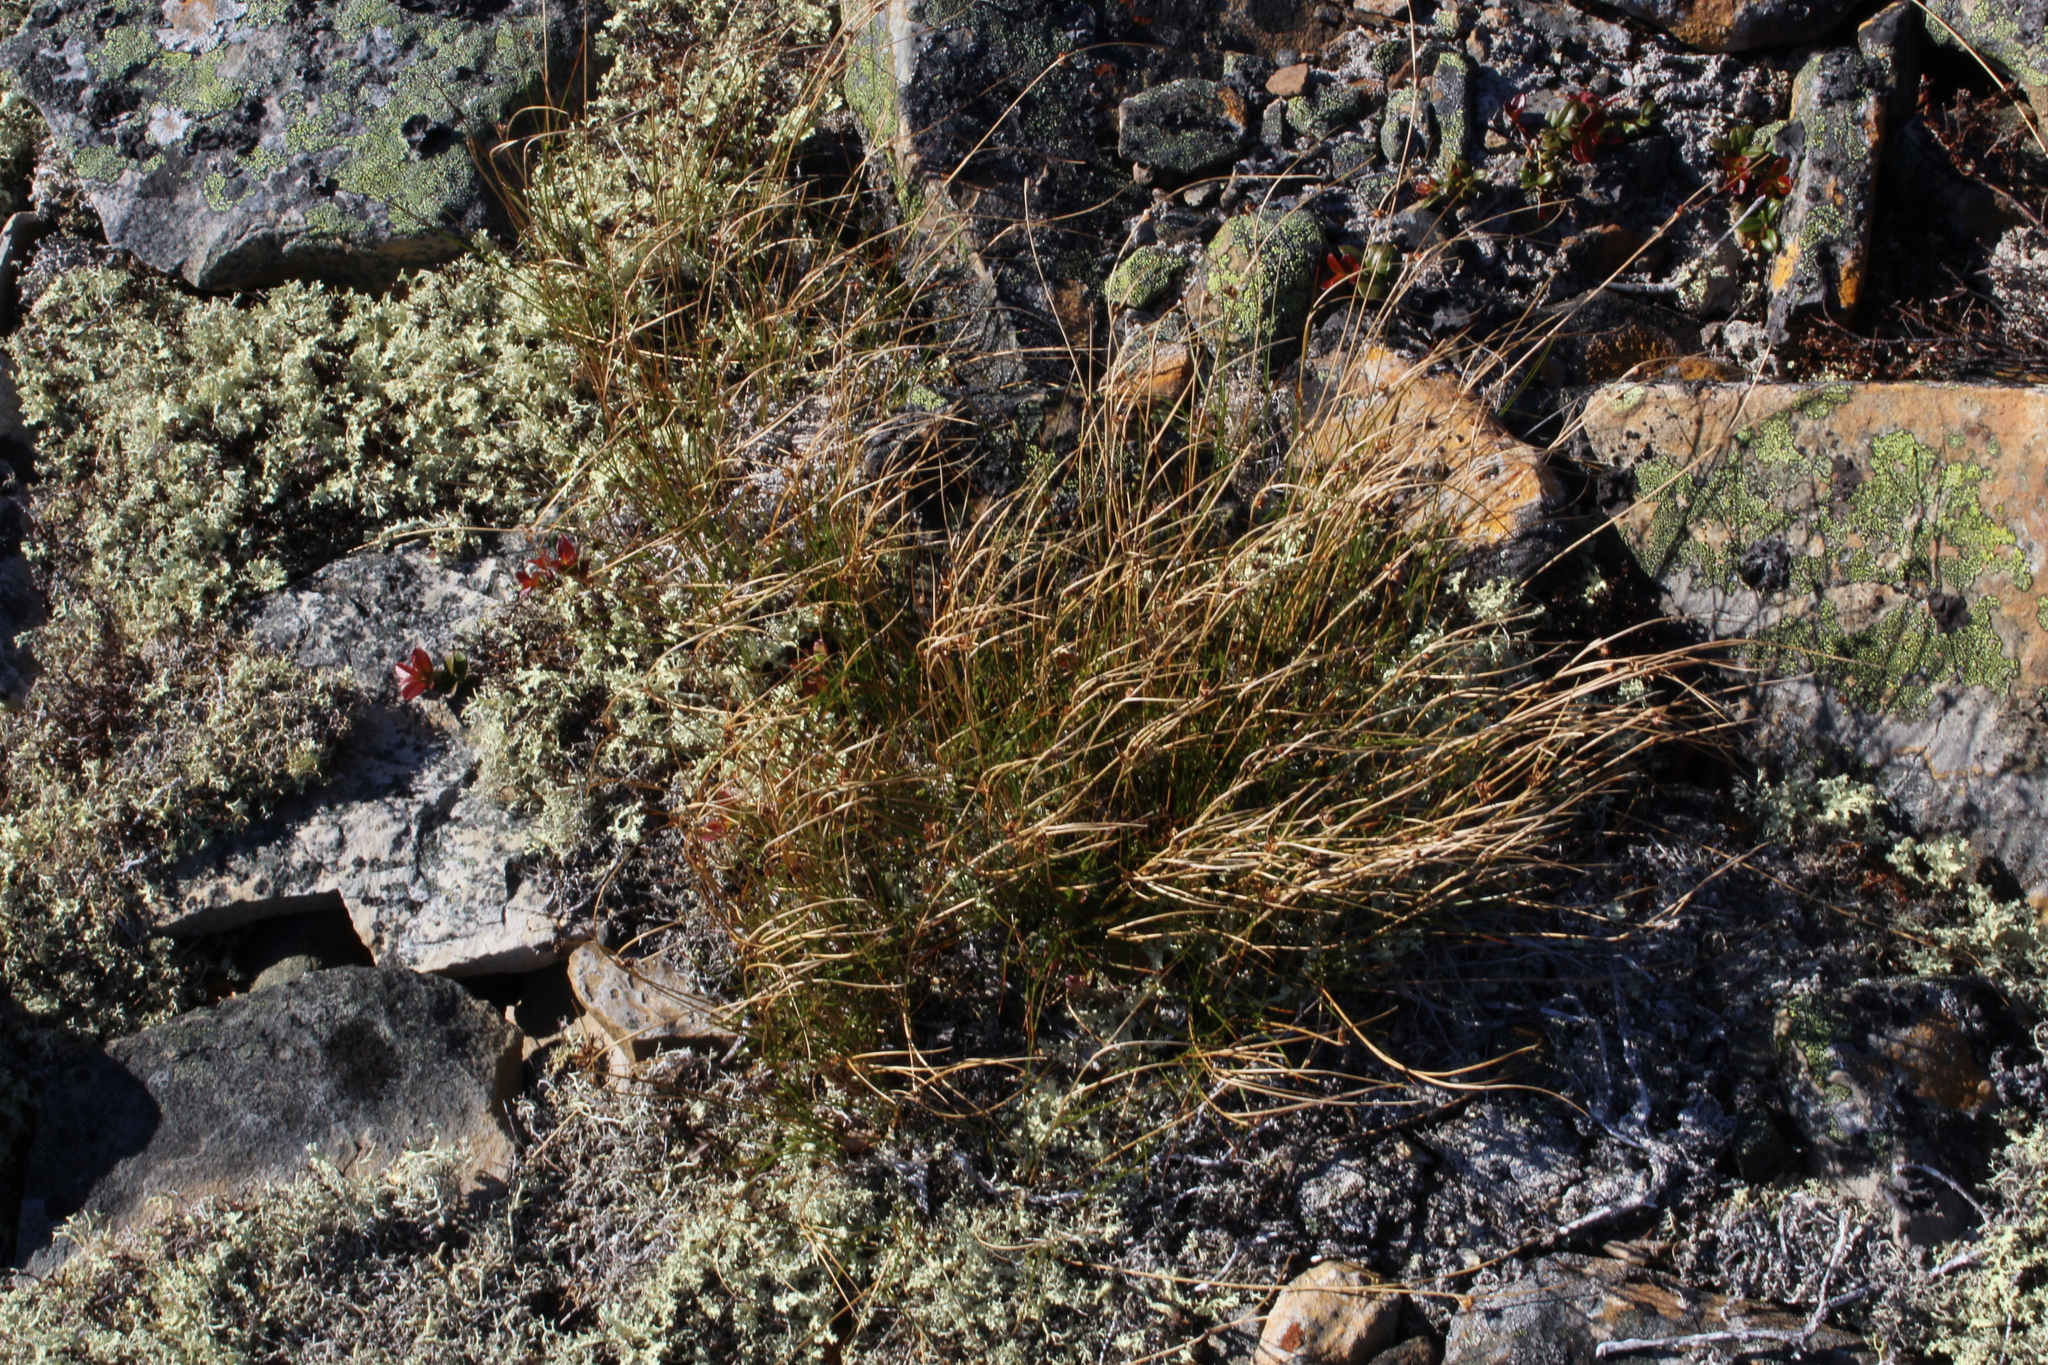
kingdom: Plantae
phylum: Tracheophyta
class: Liliopsida
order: Poales
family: Juncaceae
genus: Oreojuncus
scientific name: Oreojuncus trifidus
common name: Highland rush
